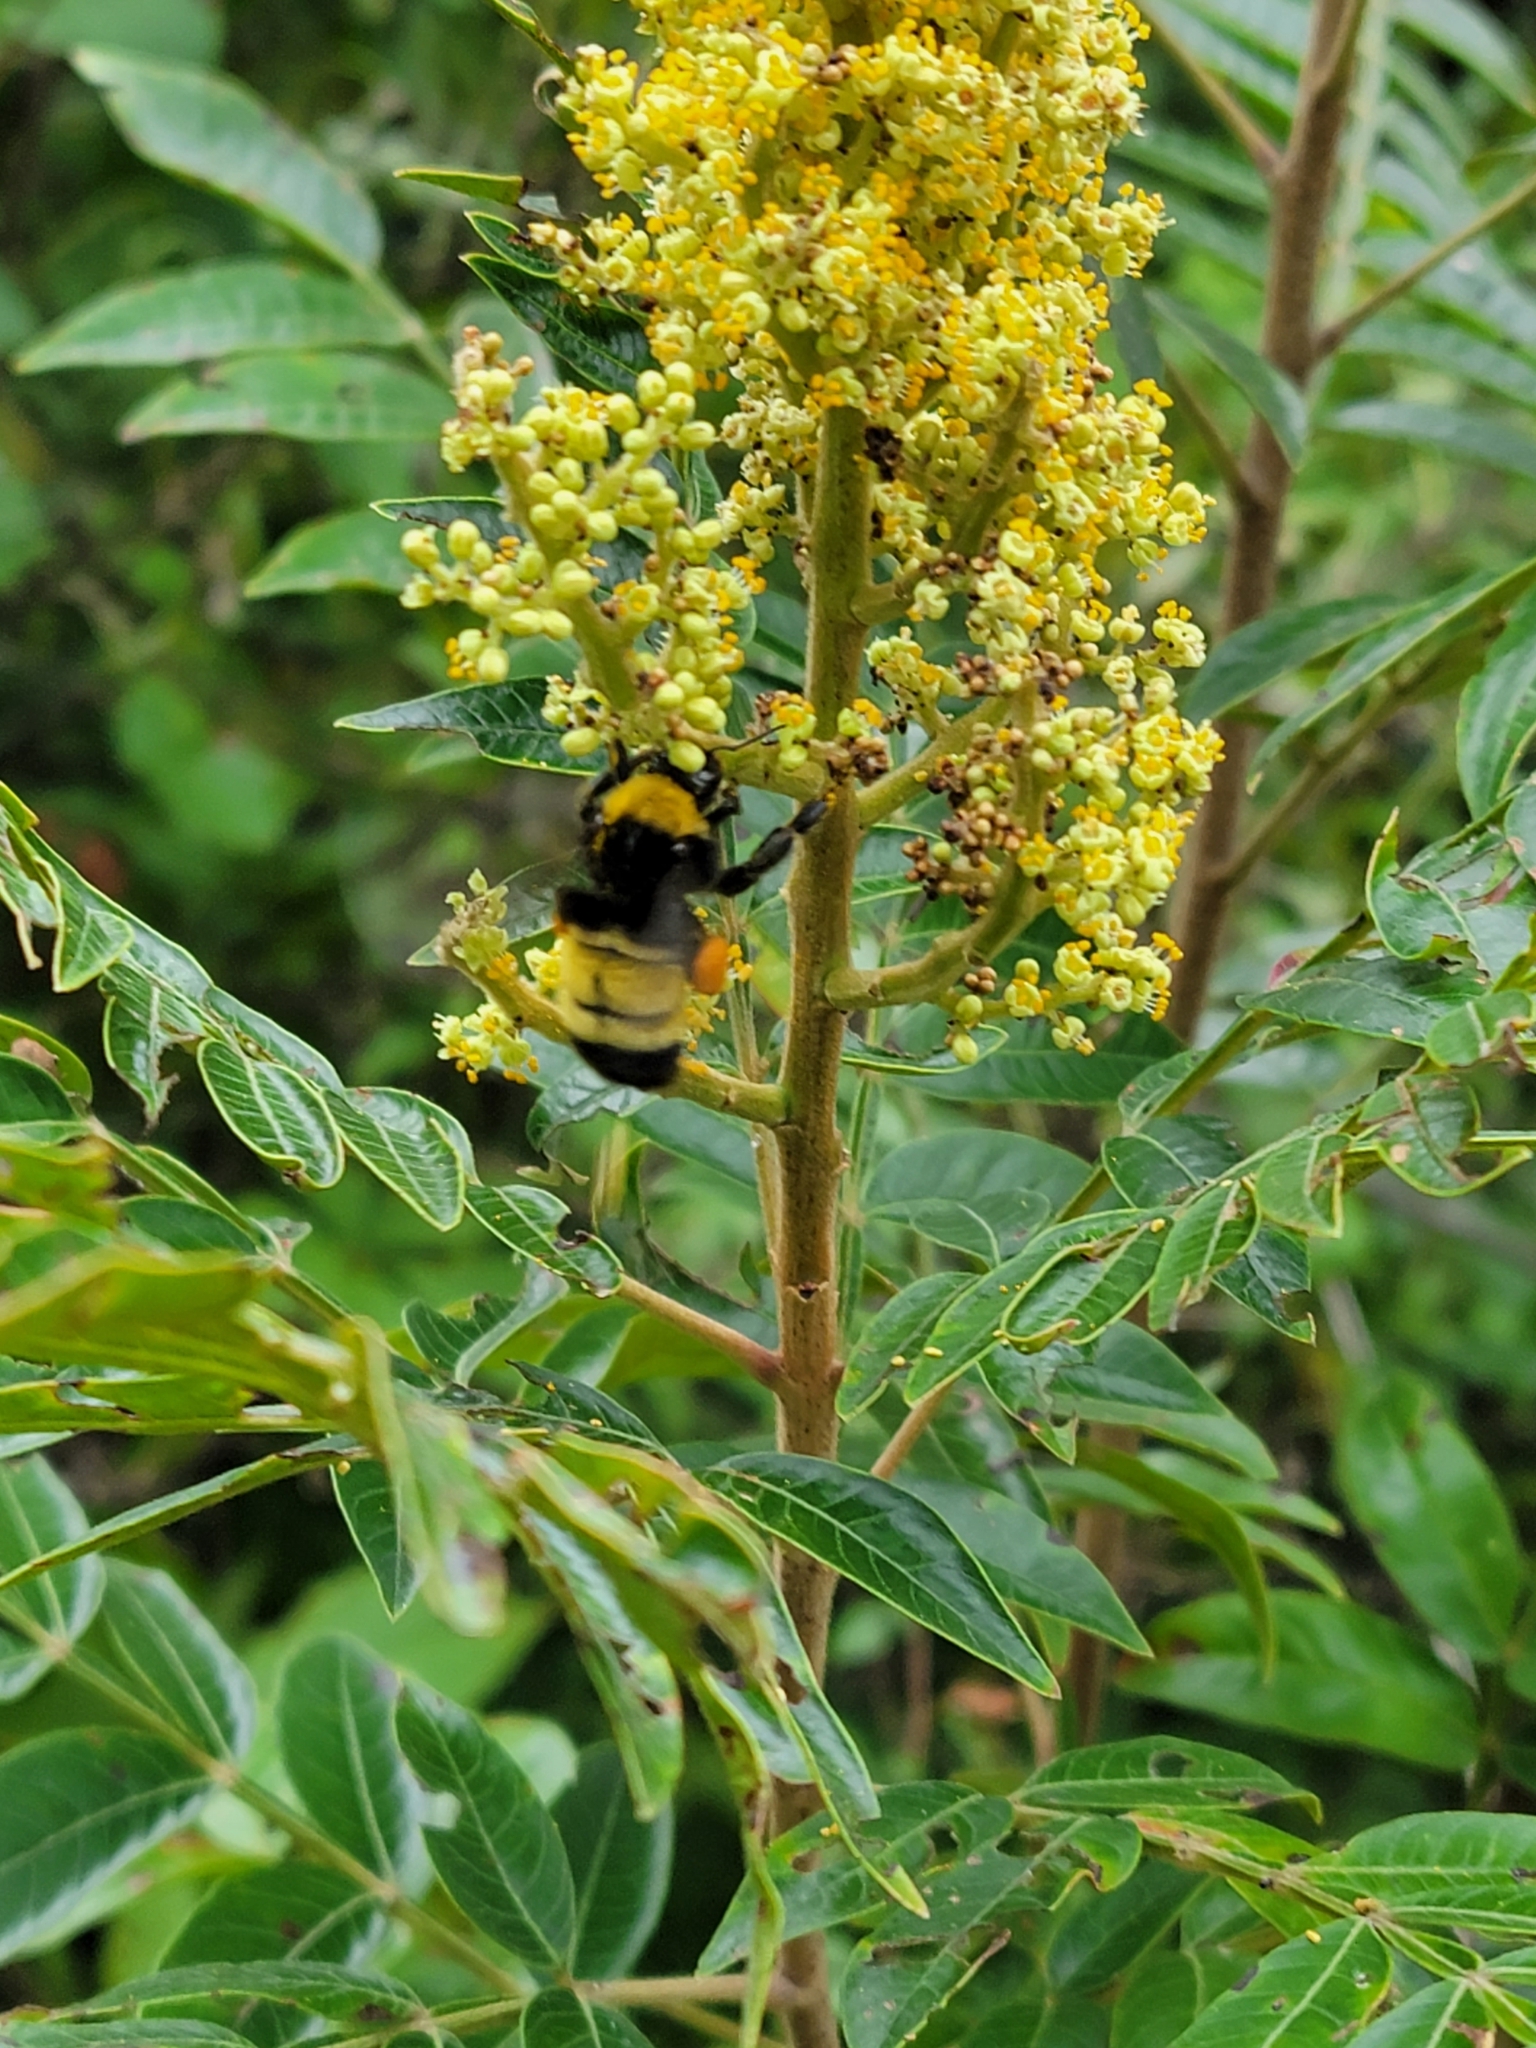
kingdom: Animalia
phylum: Arthropoda
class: Insecta
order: Hymenoptera
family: Apidae
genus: Bombus
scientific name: Bombus pensylvanicus
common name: Bumble bee
